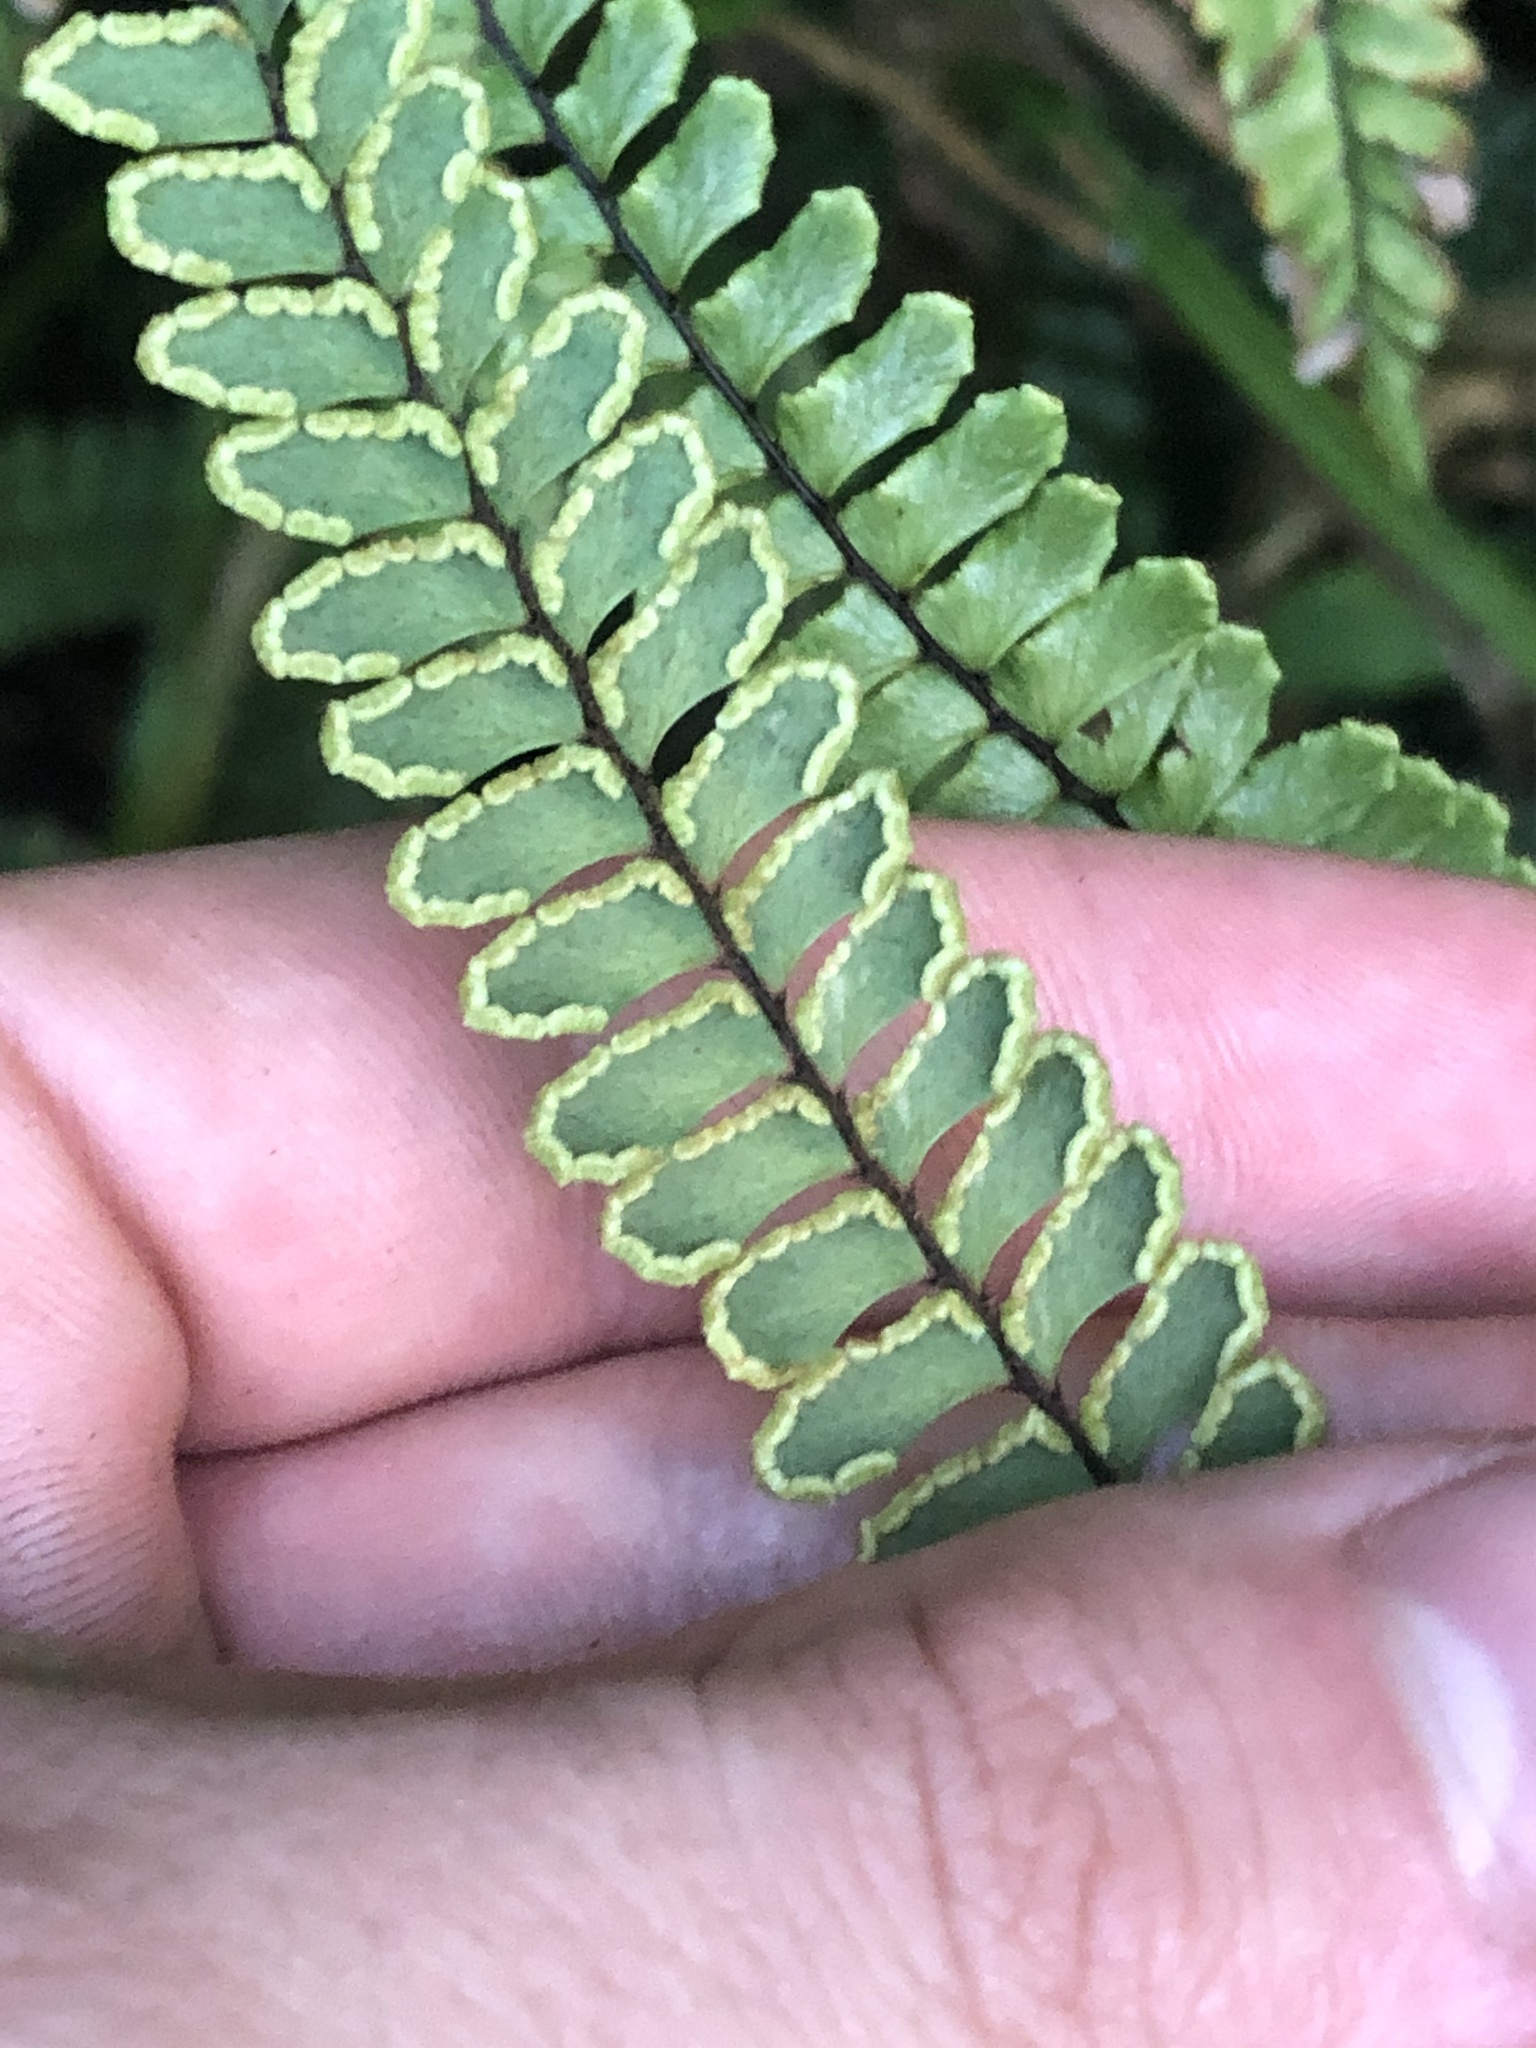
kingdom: Plantae
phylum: Tracheophyta
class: Polypodiopsida
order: Polypodiales
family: Pteridaceae
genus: Adiantum
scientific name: Adiantum serratodentatum
